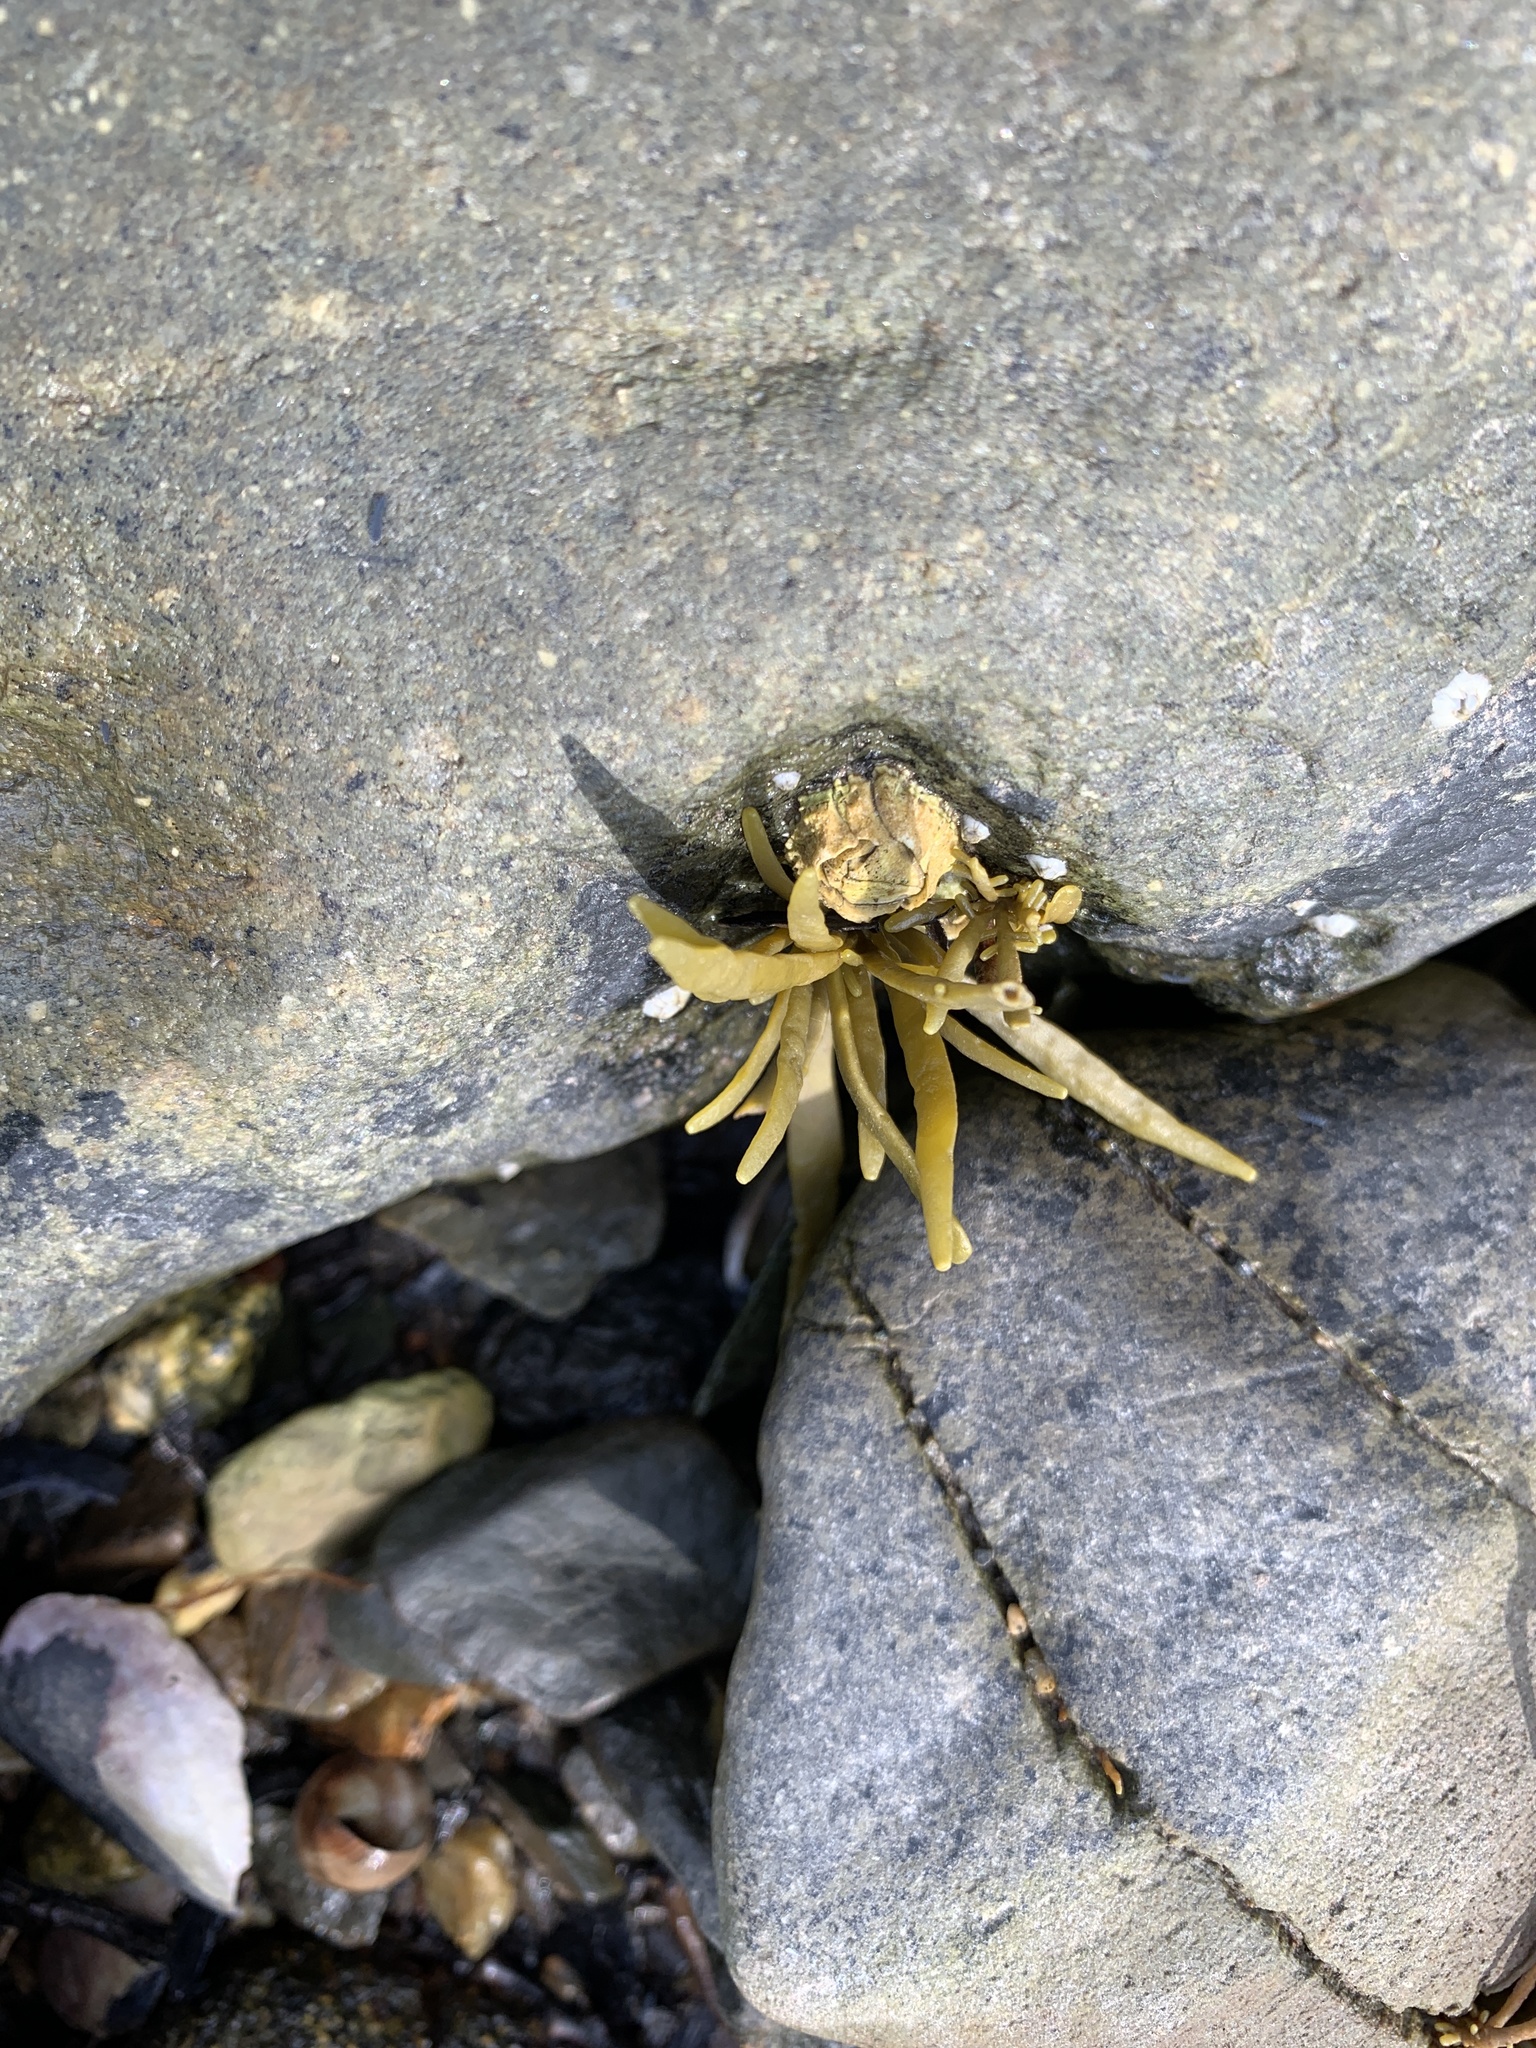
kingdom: Chromista
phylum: Ochrophyta
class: Phaeophyceae
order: Fucales
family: Fucaceae
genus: Ascophyllum
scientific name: Ascophyllum nodosum
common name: Knotted wrack
